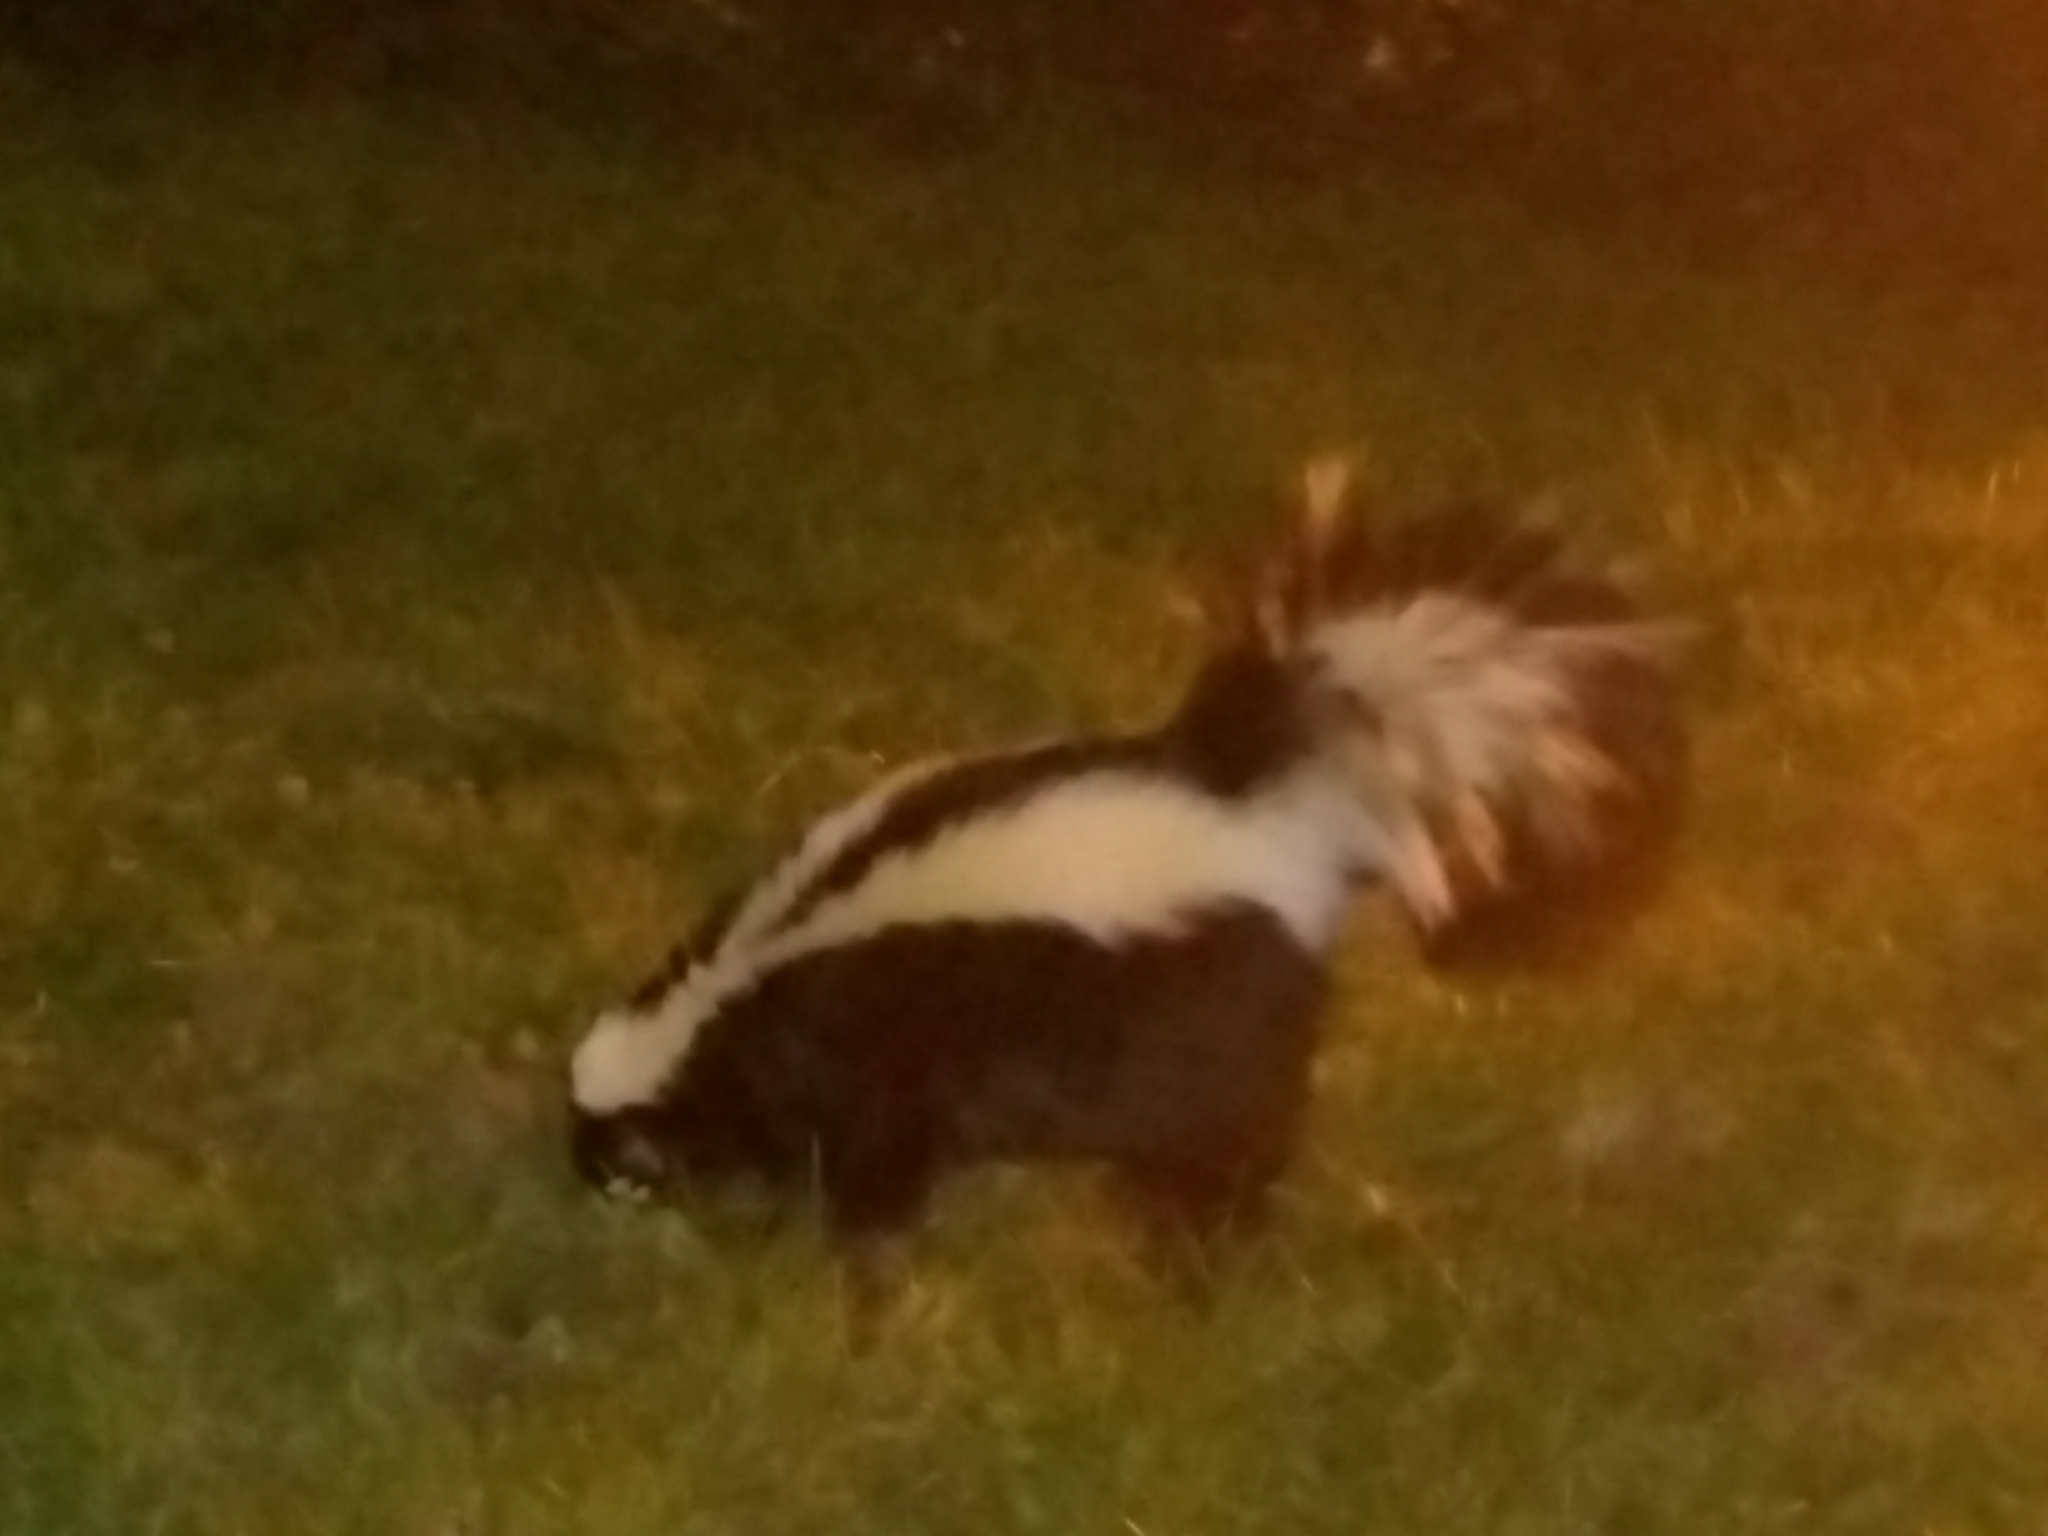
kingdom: Animalia
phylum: Chordata
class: Mammalia
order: Carnivora
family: Mephitidae
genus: Mephitis
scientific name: Mephitis mephitis
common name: Striped skunk
